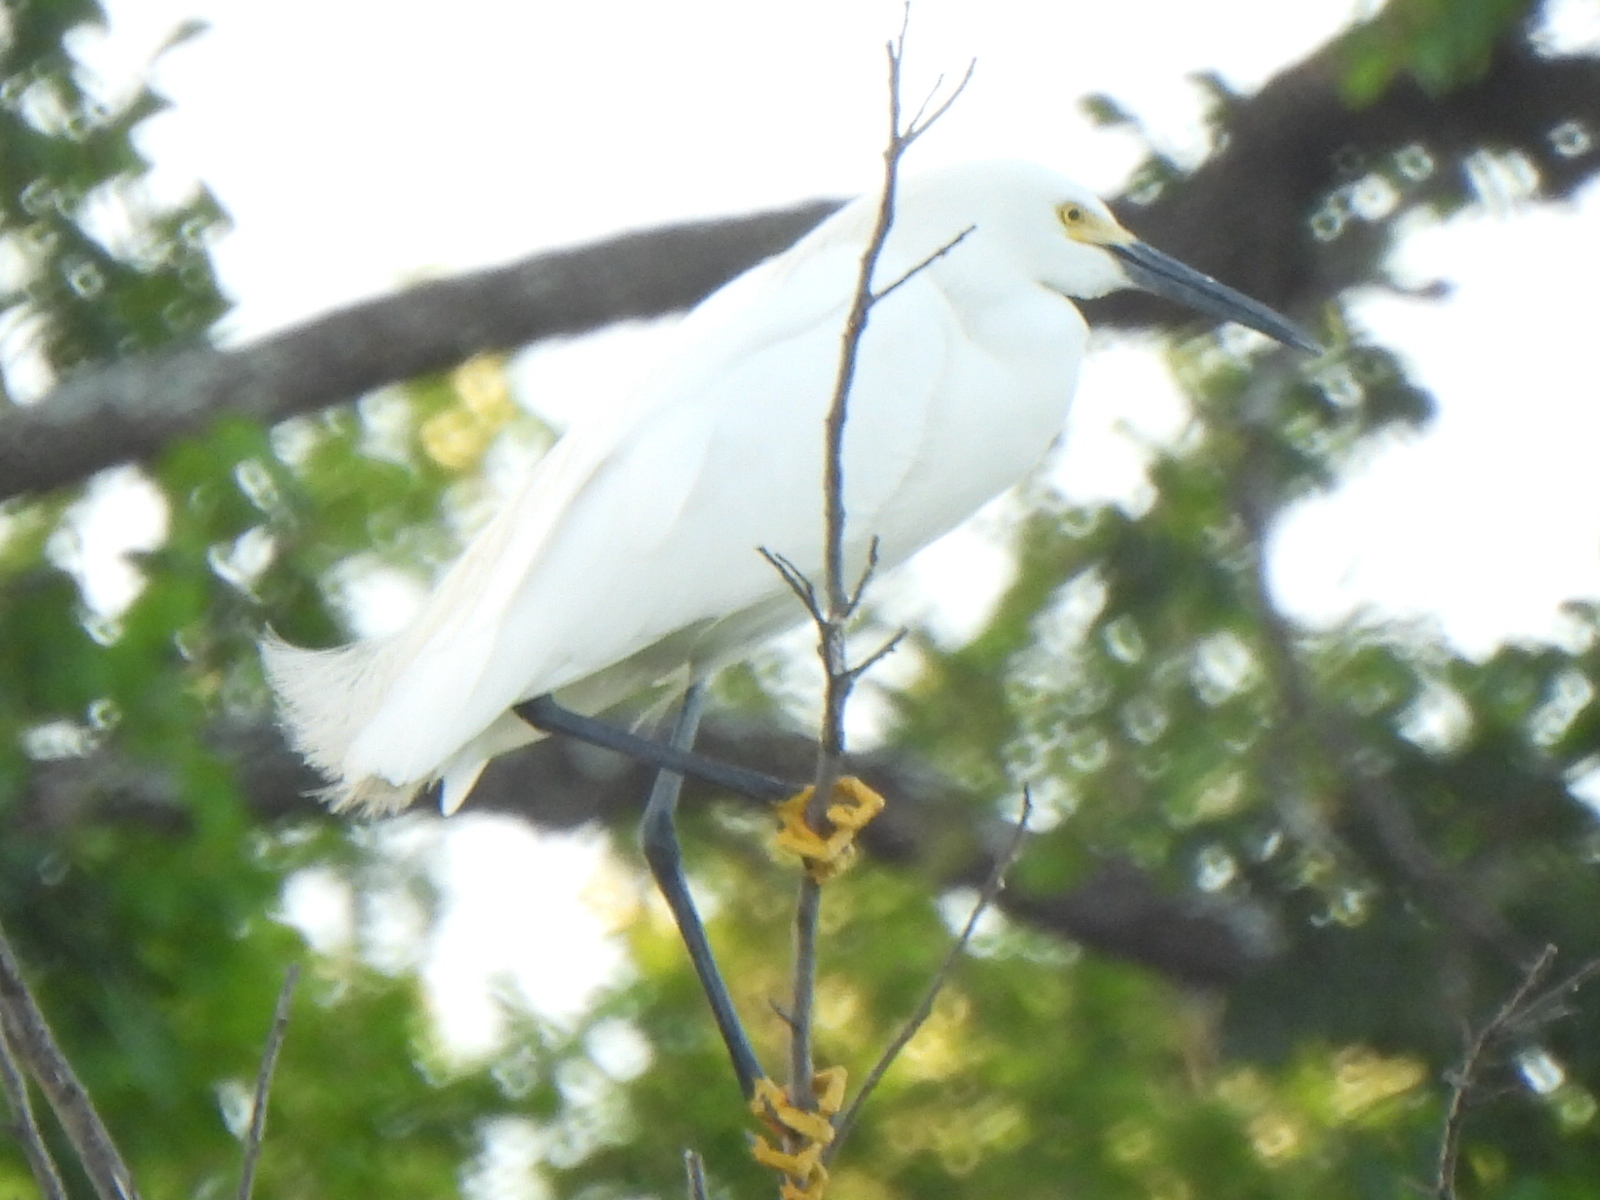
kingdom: Animalia
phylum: Chordata
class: Aves
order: Pelecaniformes
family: Ardeidae
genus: Egretta
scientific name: Egretta thula
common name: Snowy egret
